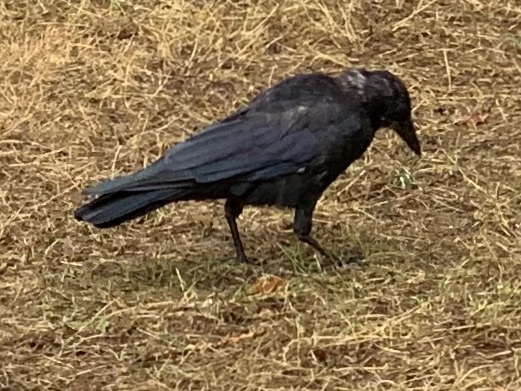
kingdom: Animalia
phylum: Chordata
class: Aves
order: Passeriformes
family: Corvidae
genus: Corvus
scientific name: Corvus brachyrhynchos
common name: American crow
